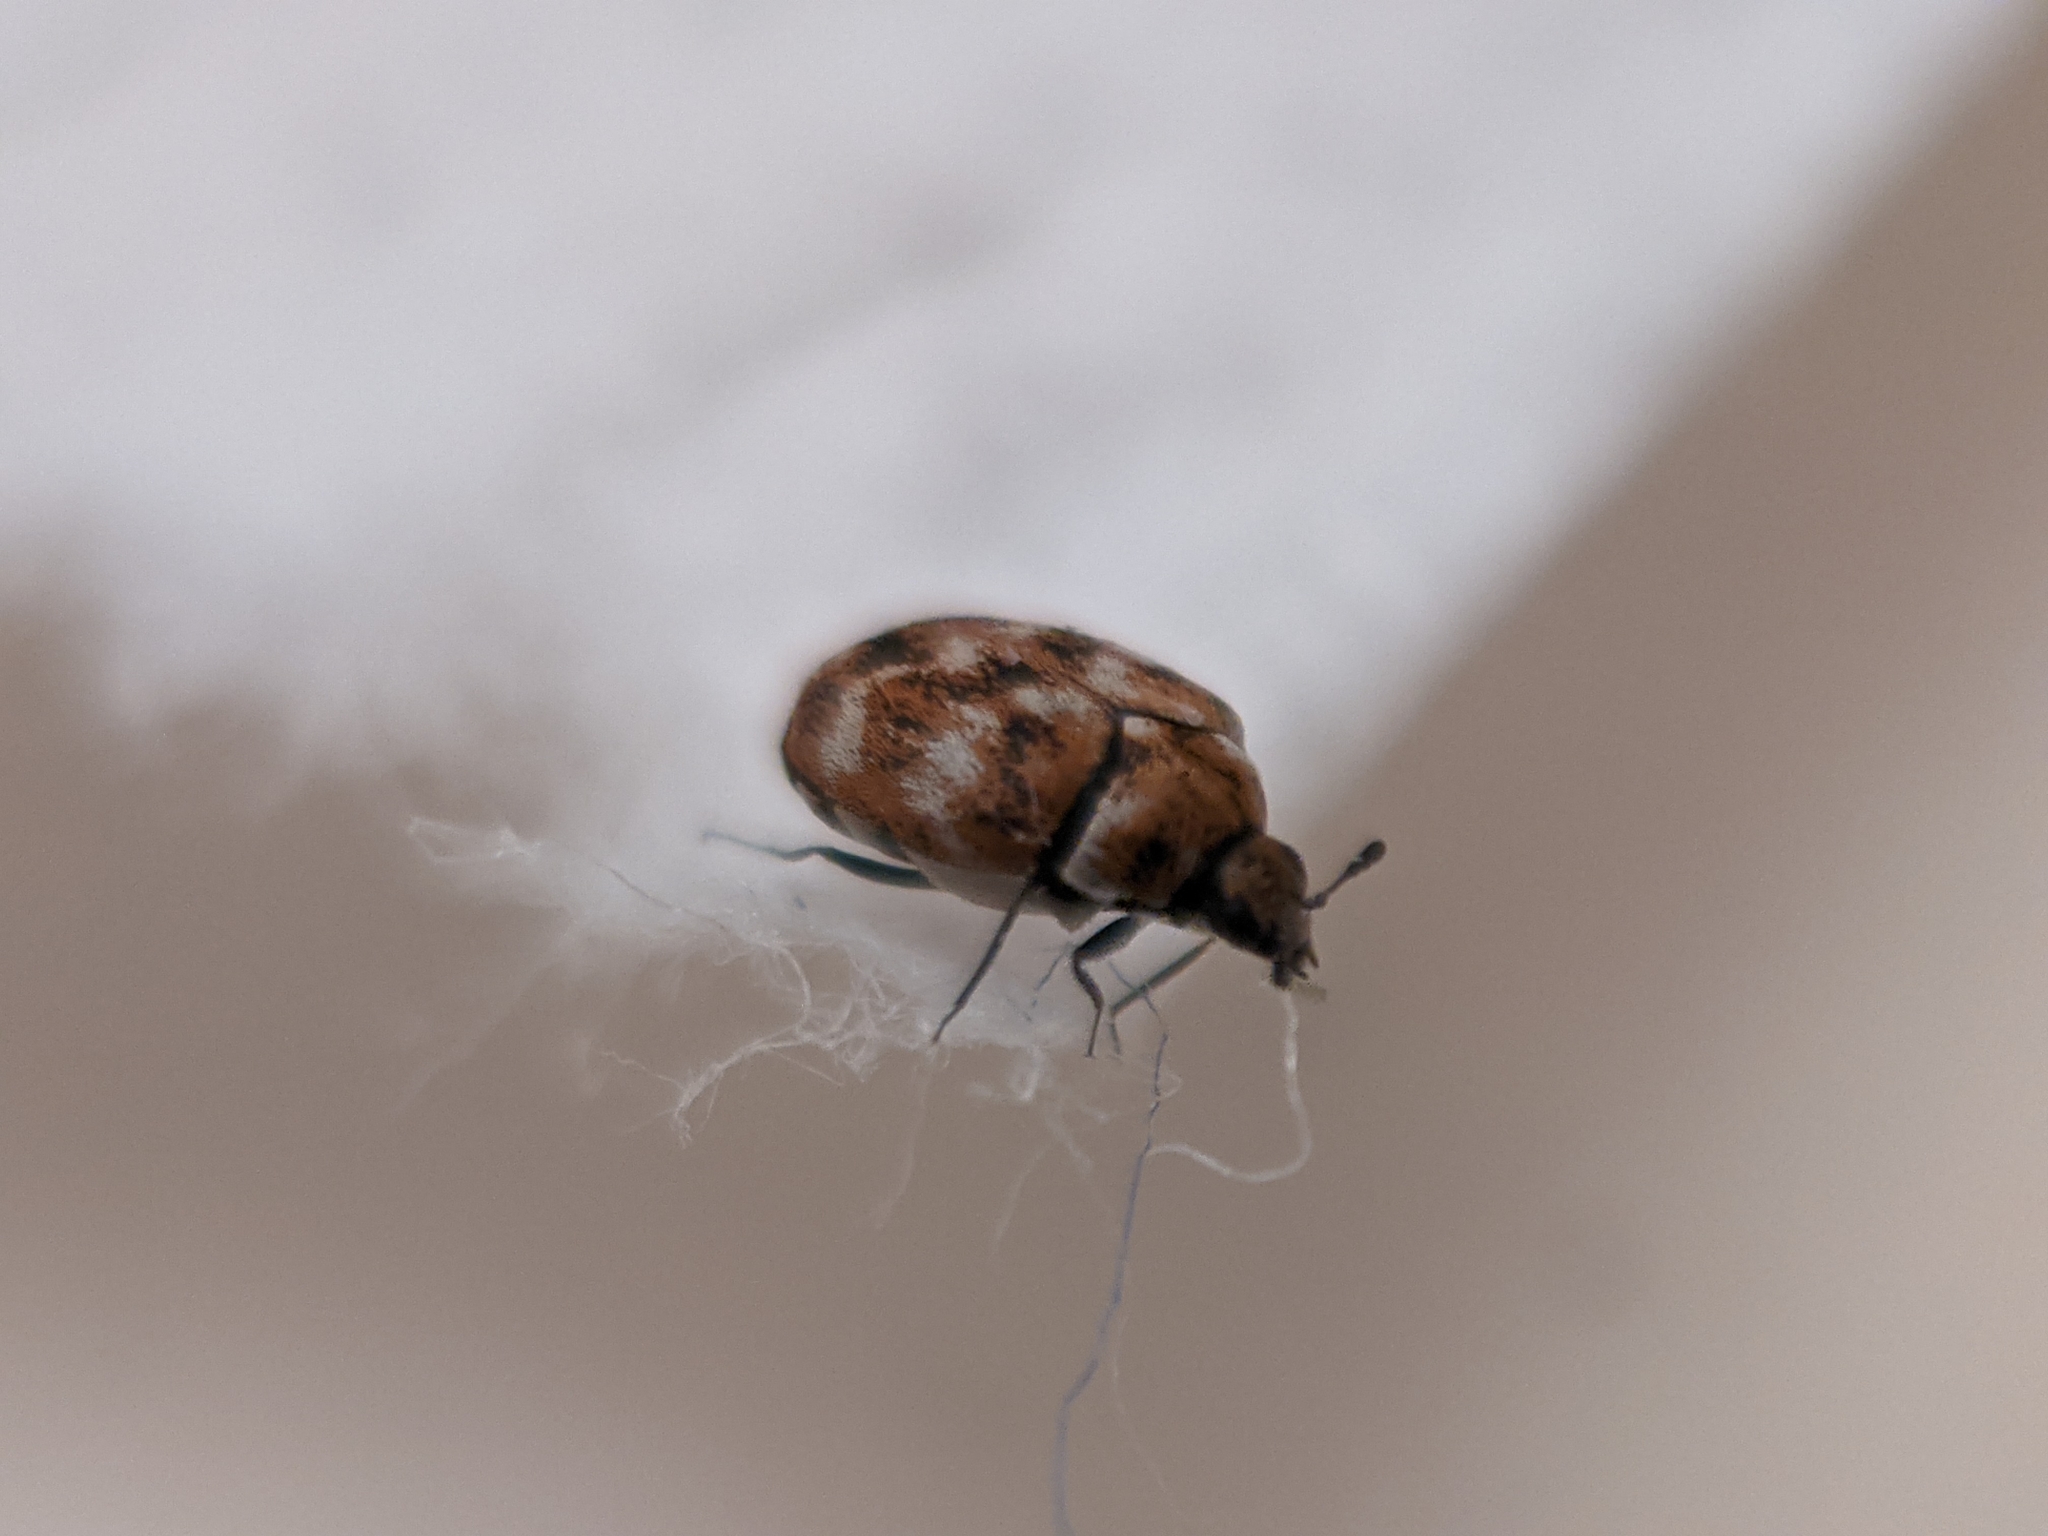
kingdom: Animalia
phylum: Arthropoda
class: Insecta
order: Coleoptera
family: Dermestidae
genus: Anthrenus
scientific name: Anthrenus verbasci
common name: Varied carpet beetle
